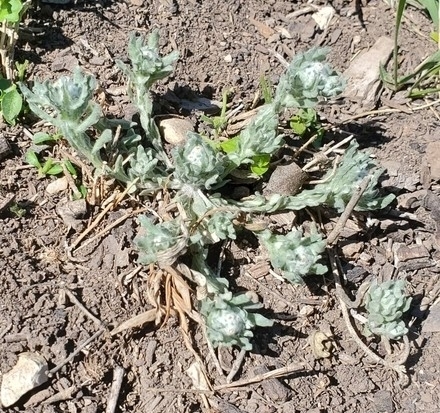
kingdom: Plantae
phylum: Tracheophyta
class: Magnoliopsida
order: Asterales
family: Asteraceae
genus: Diaperia
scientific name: Diaperia verna
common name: Many-stem rabbit-tobacco
